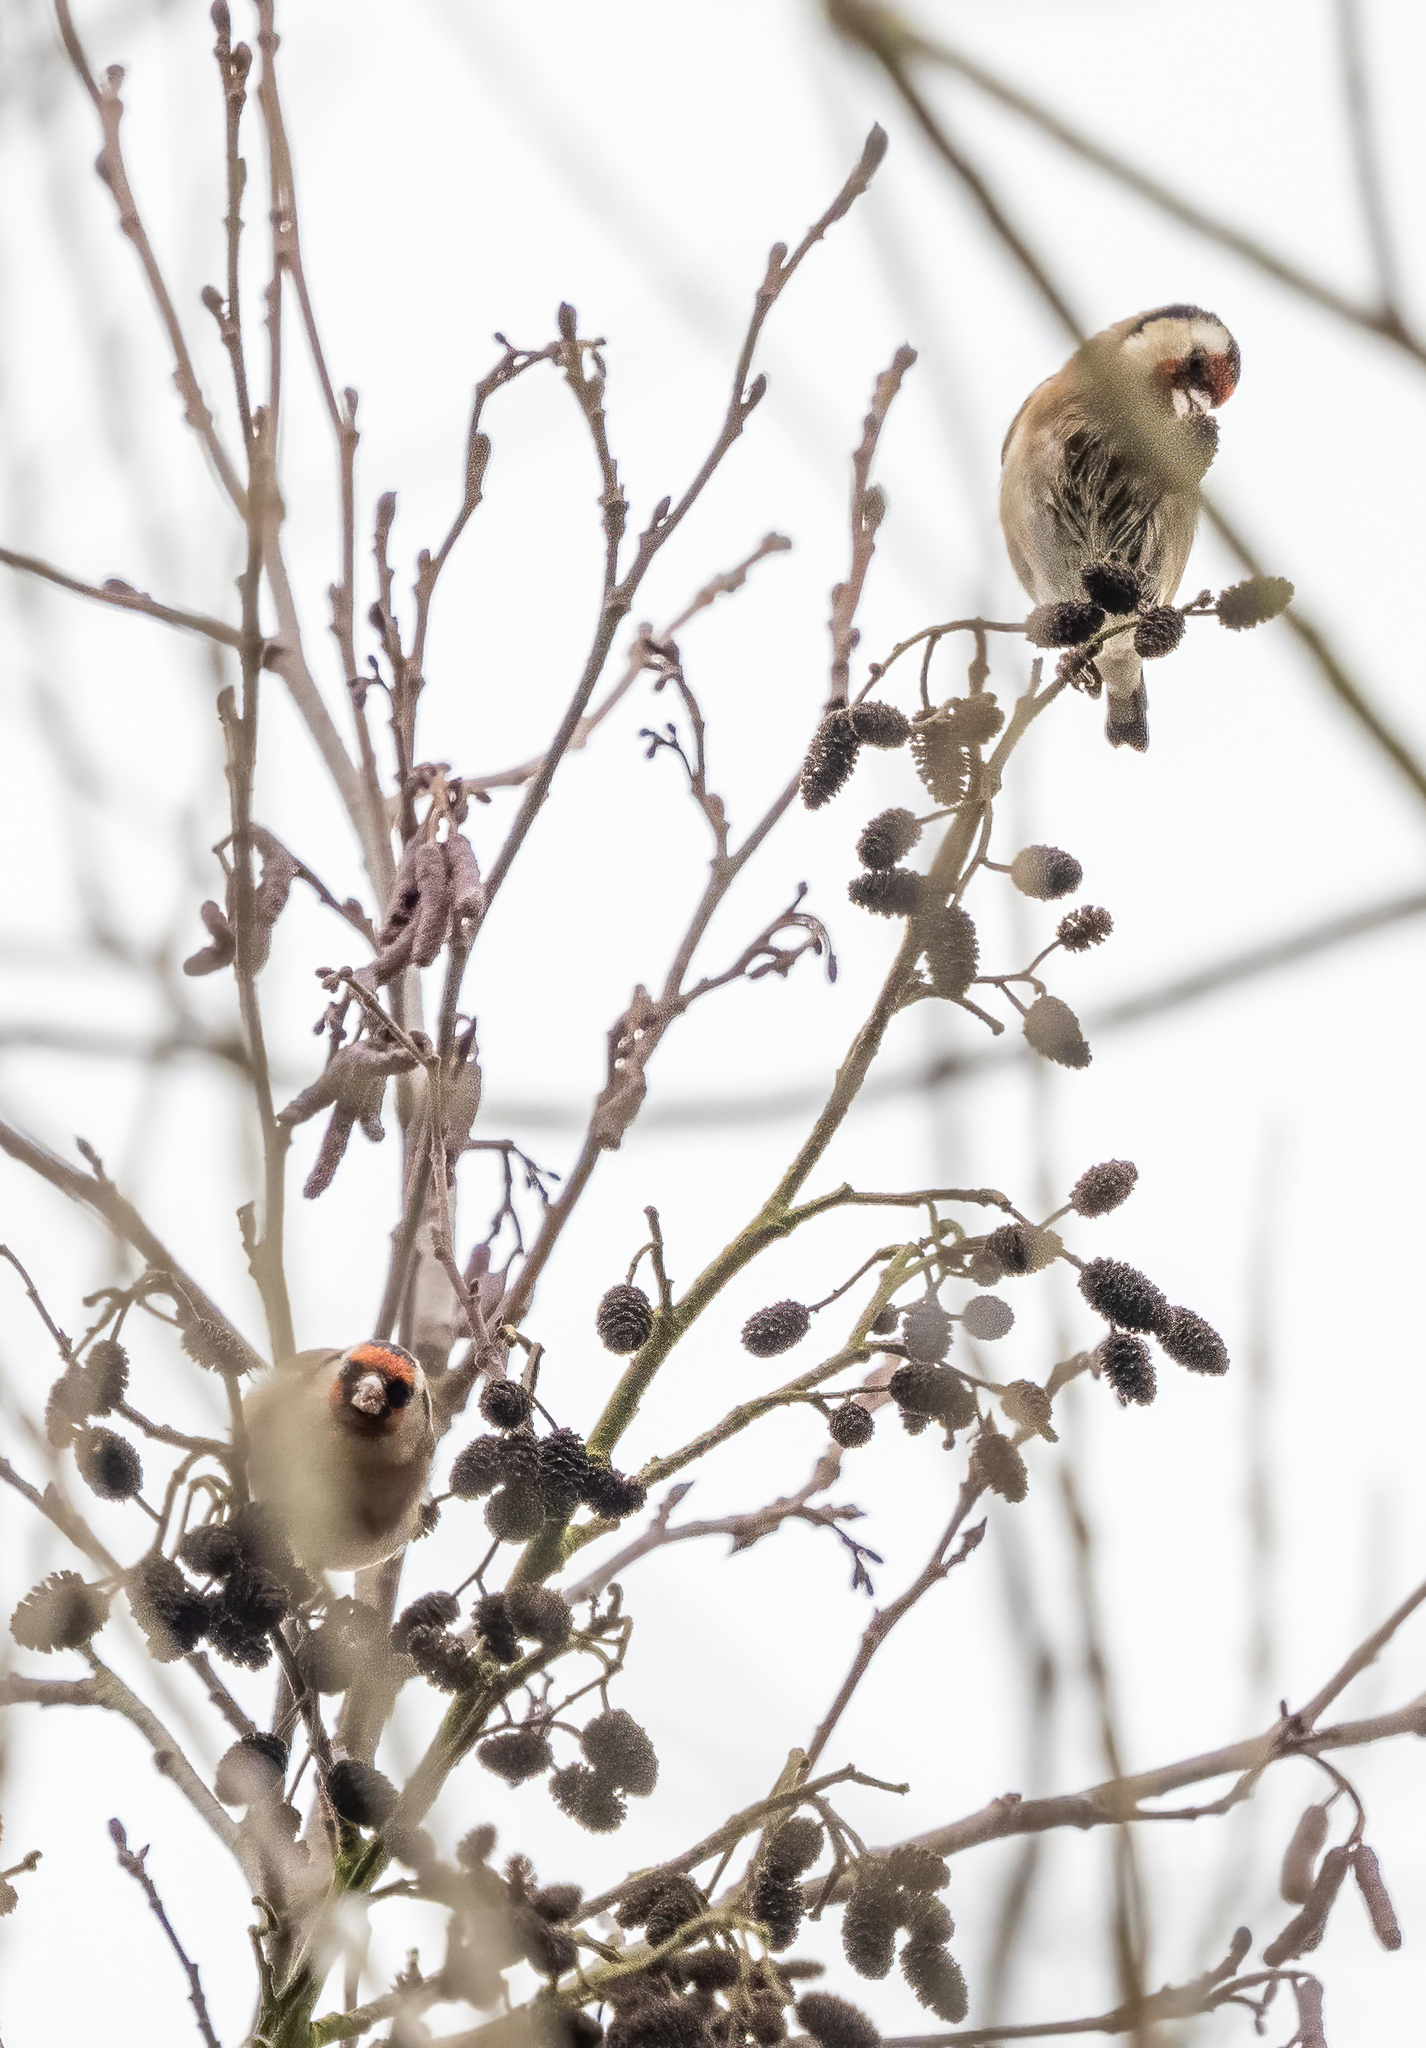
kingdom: Animalia
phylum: Chordata
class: Aves
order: Passeriformes
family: Fringillidae
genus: Carduelis
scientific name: Carduelis carduelis
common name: European goldfinch
